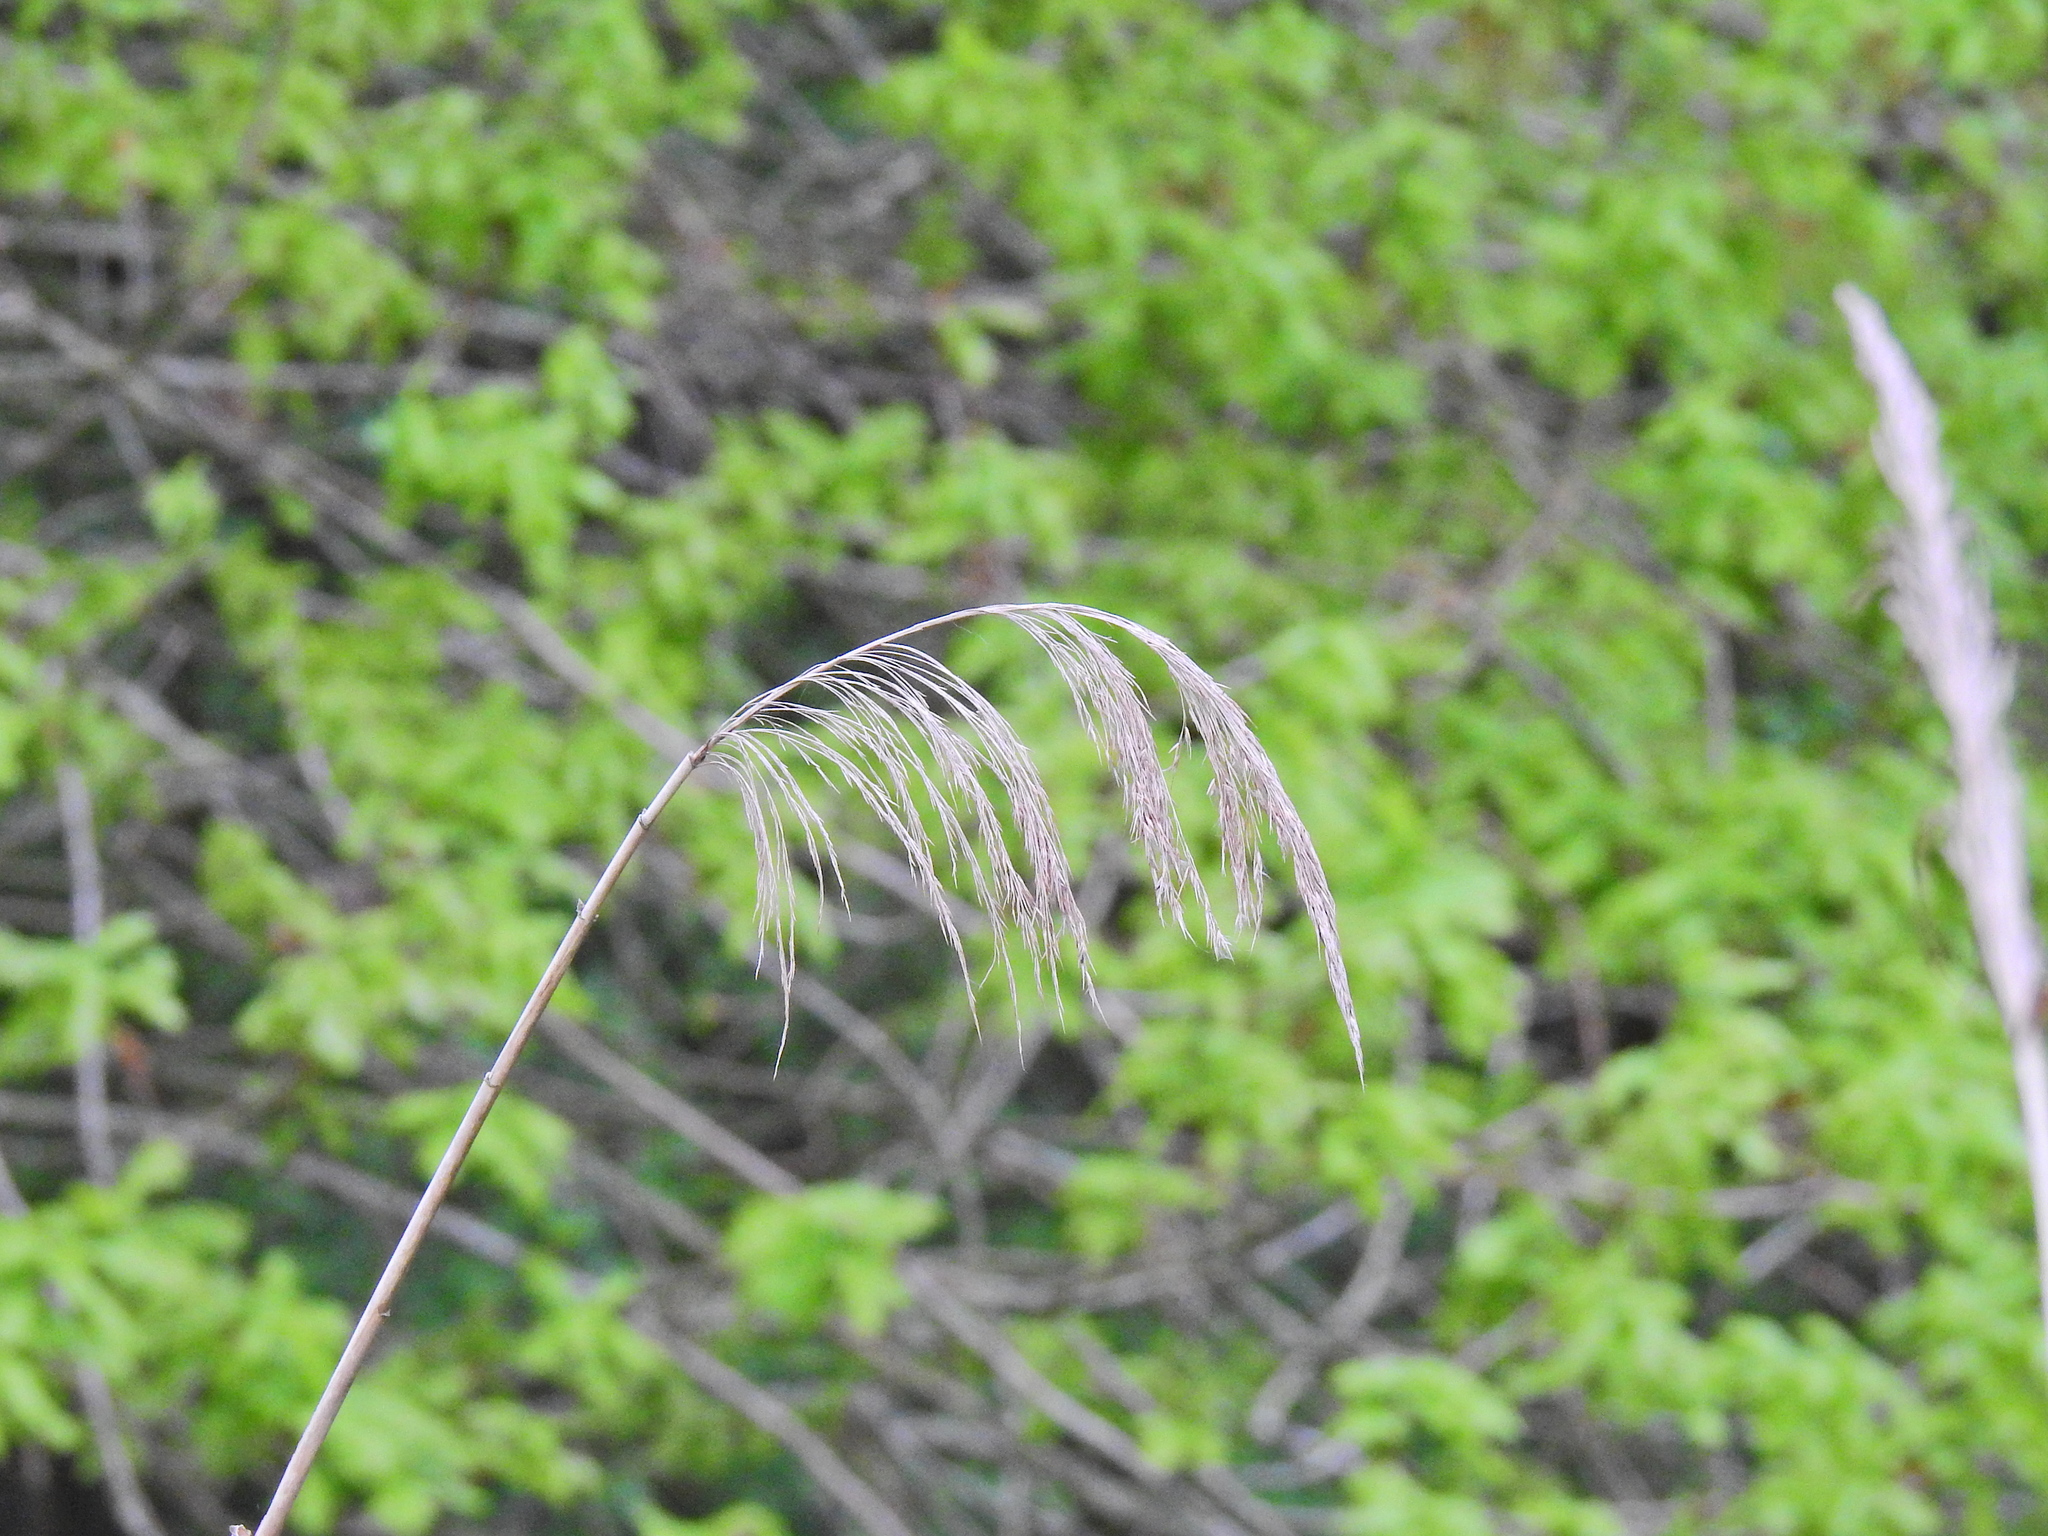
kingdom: Plantae
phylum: Tracheophyta
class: Liliopsida
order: Poales
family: Poaceae
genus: Phragmites
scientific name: Phragmites australis
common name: Common reed
